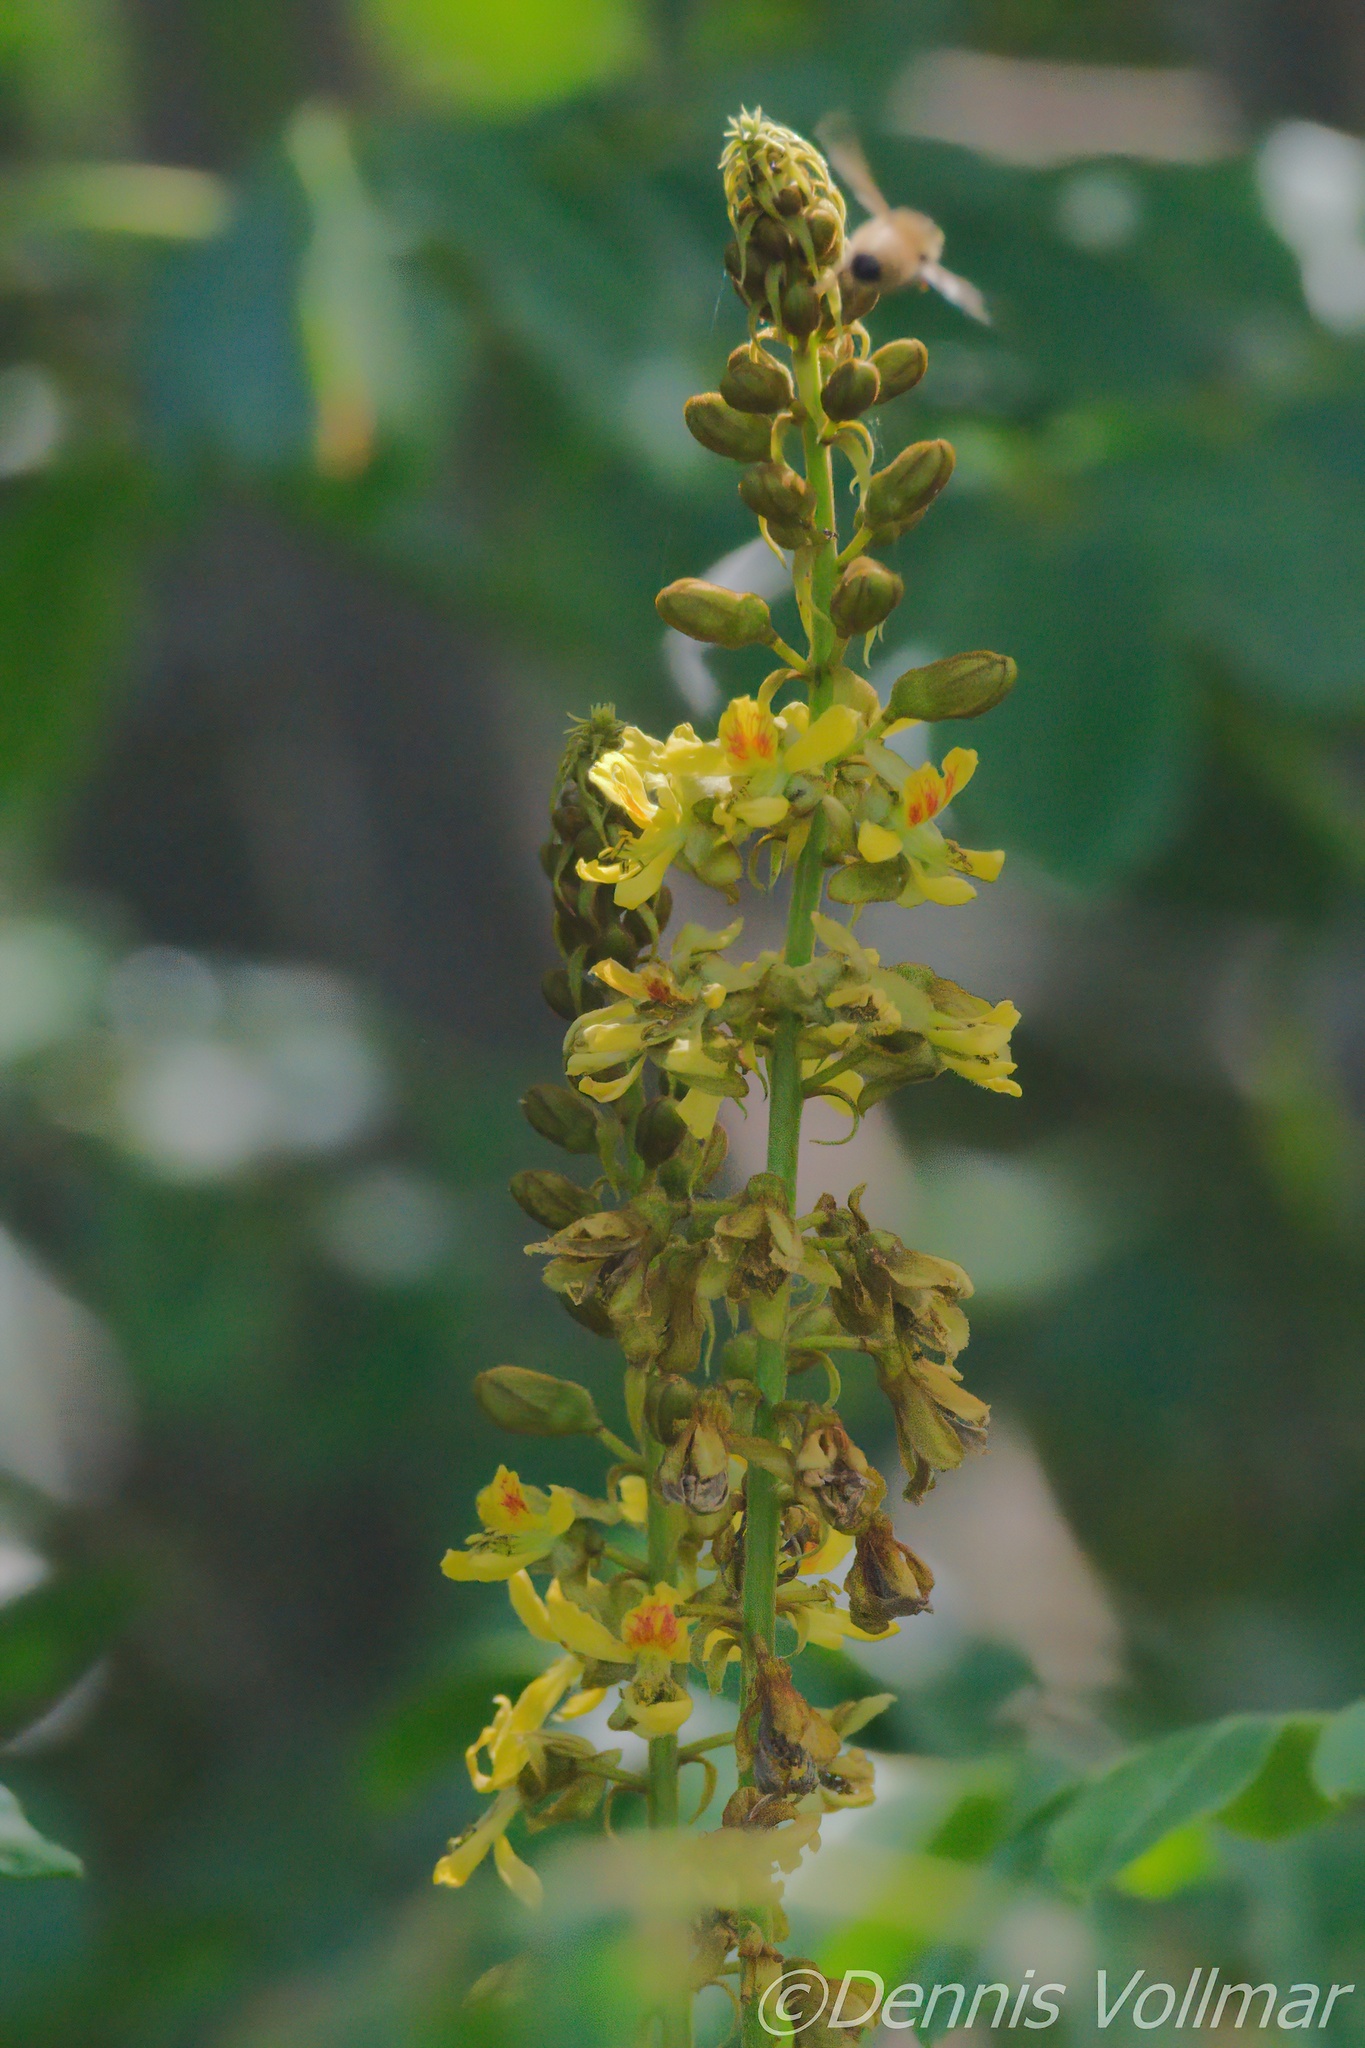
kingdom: Plantae
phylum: Tracheophyta
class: Magnoliopsida
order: Fabales
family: Fabaceae
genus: Guilandina
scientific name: Guilandina bonduc
